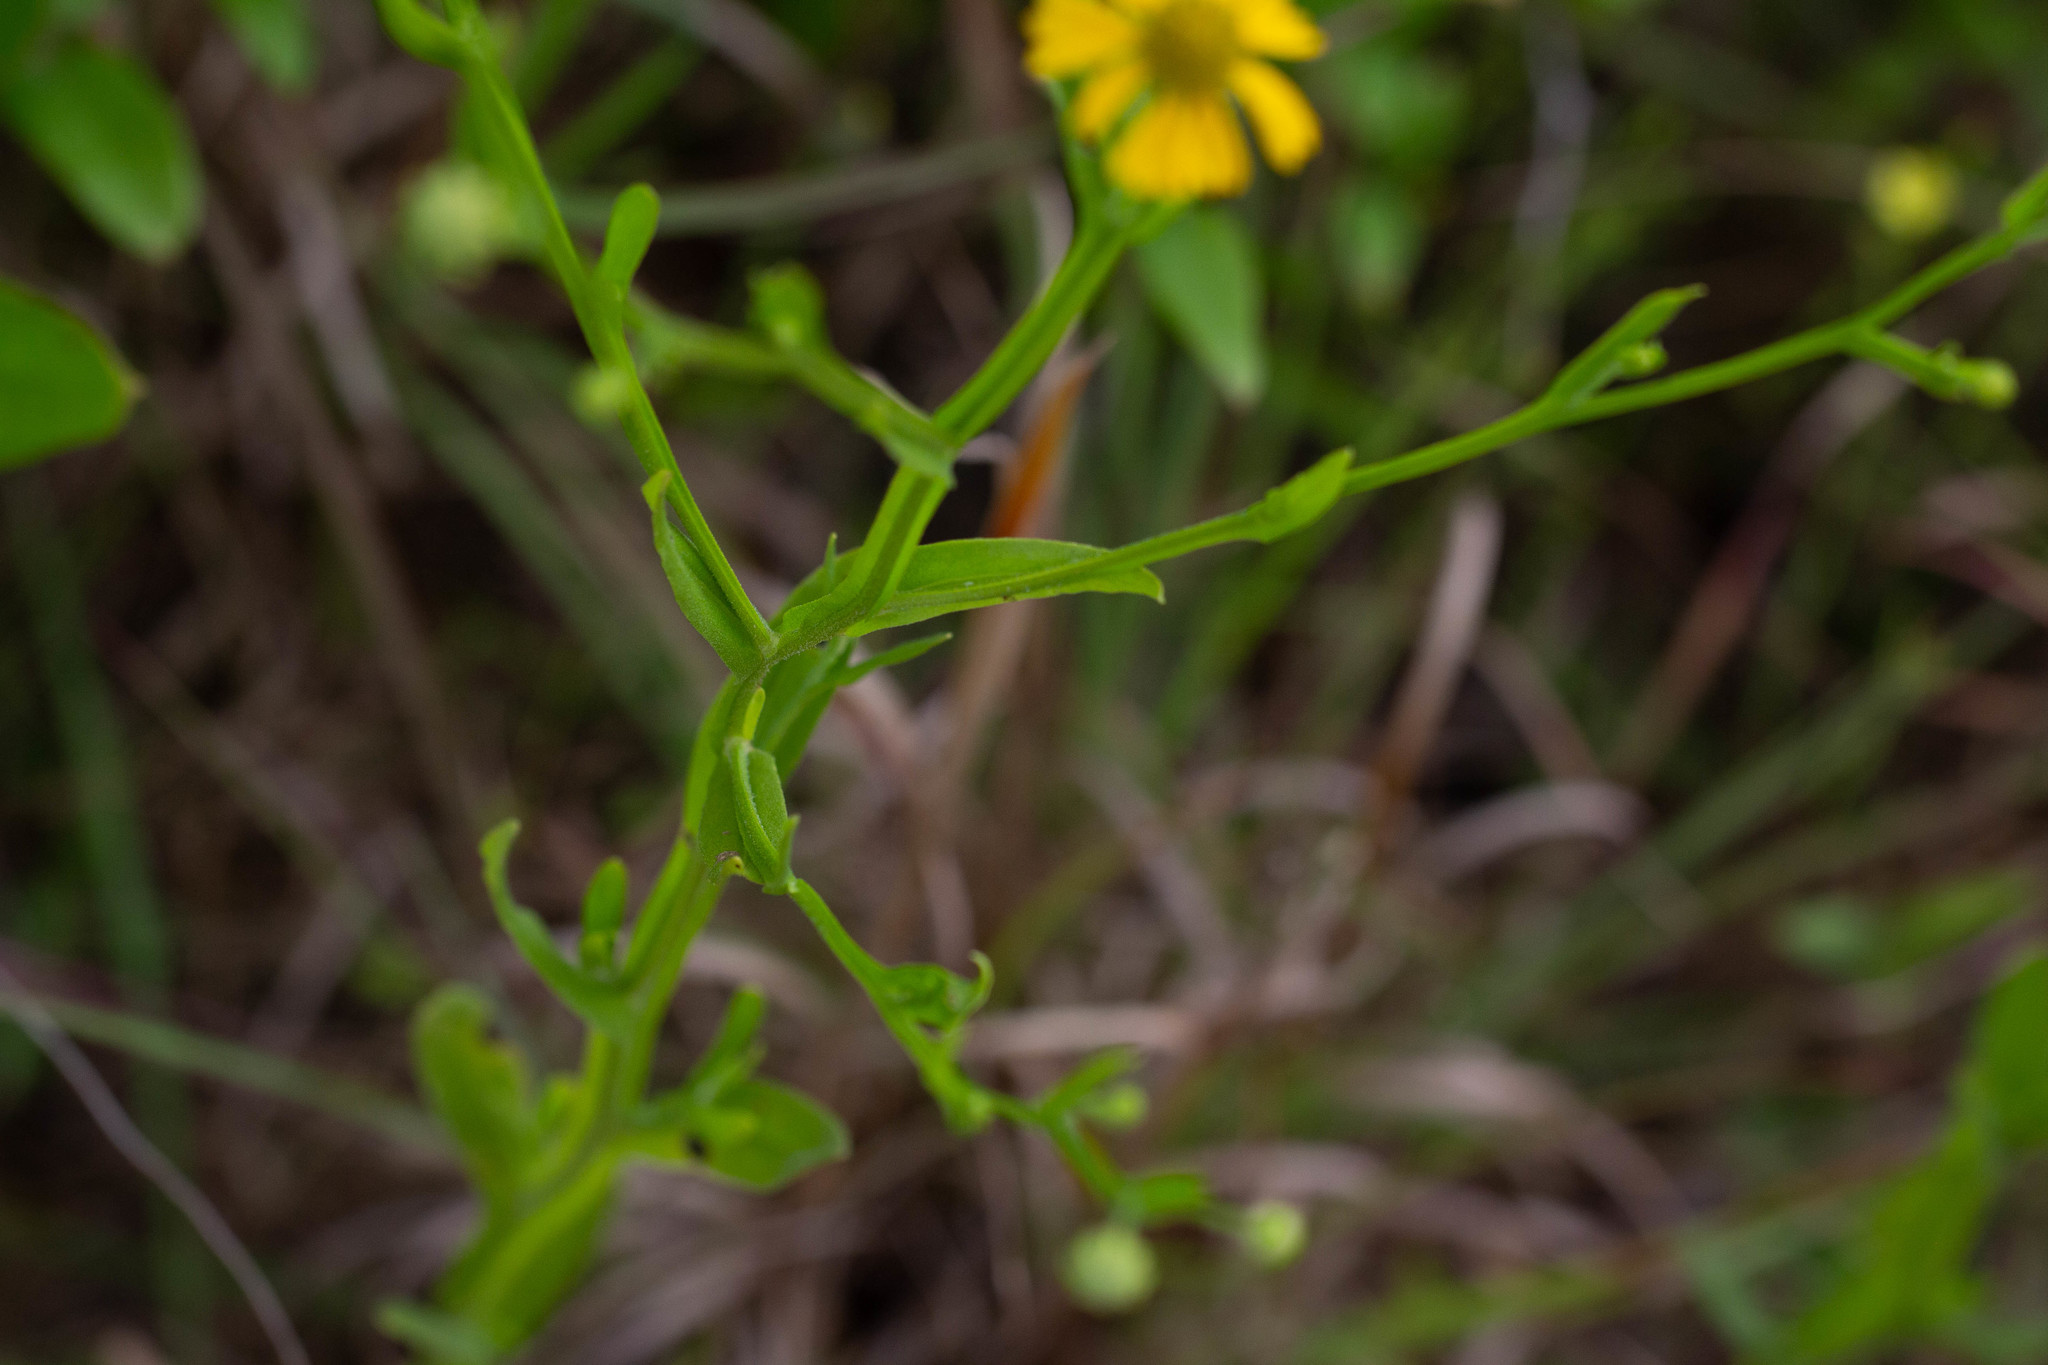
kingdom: Plantae
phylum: Tracheophyta
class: Magnoliopsida
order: Asterales
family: Asteraceae
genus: Helenium
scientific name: Helenium flexuosum
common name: Naked-flowered sneezeweed
